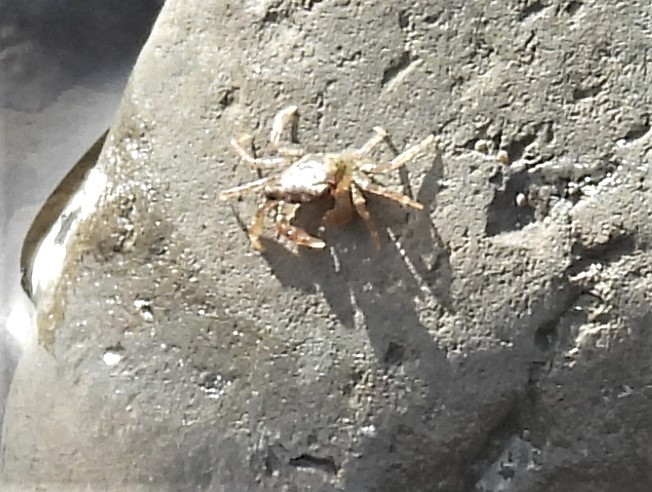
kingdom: Animalia
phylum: Arthropoda
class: Malacostraca
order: Decapoda
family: Grapsidae
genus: Pachygrapsus
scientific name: Pachygrapsus crassipes
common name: Striped shore crab
